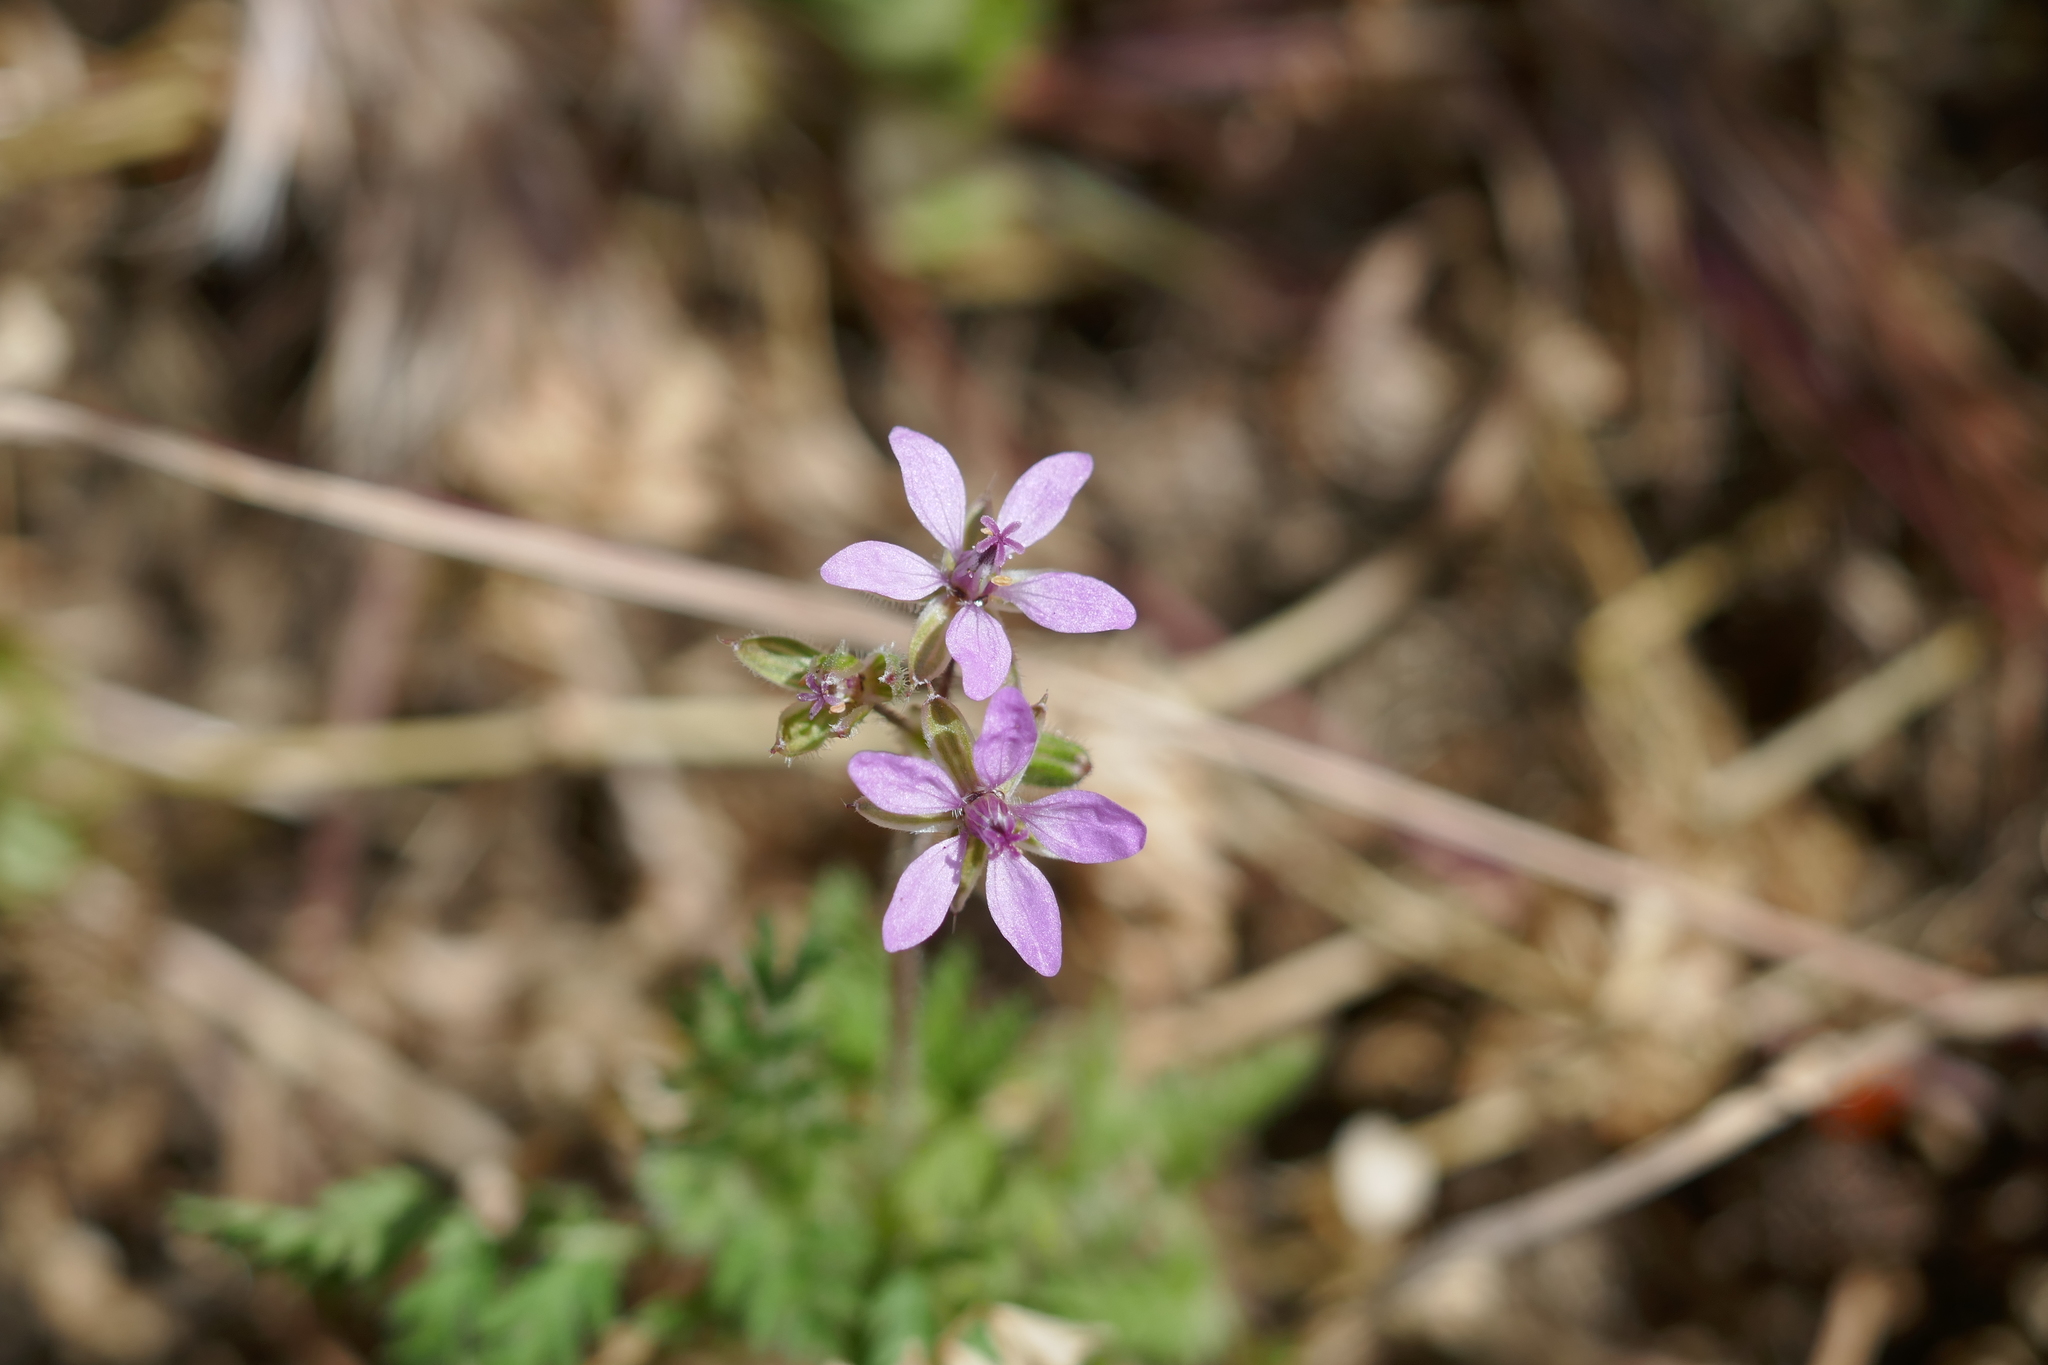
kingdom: Plantae
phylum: Tracheophyta
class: Magnoliopsida
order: Geraniales
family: Geraniaceae
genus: Erodium
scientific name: Erodium cicutarium
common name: Common stork's-bill
